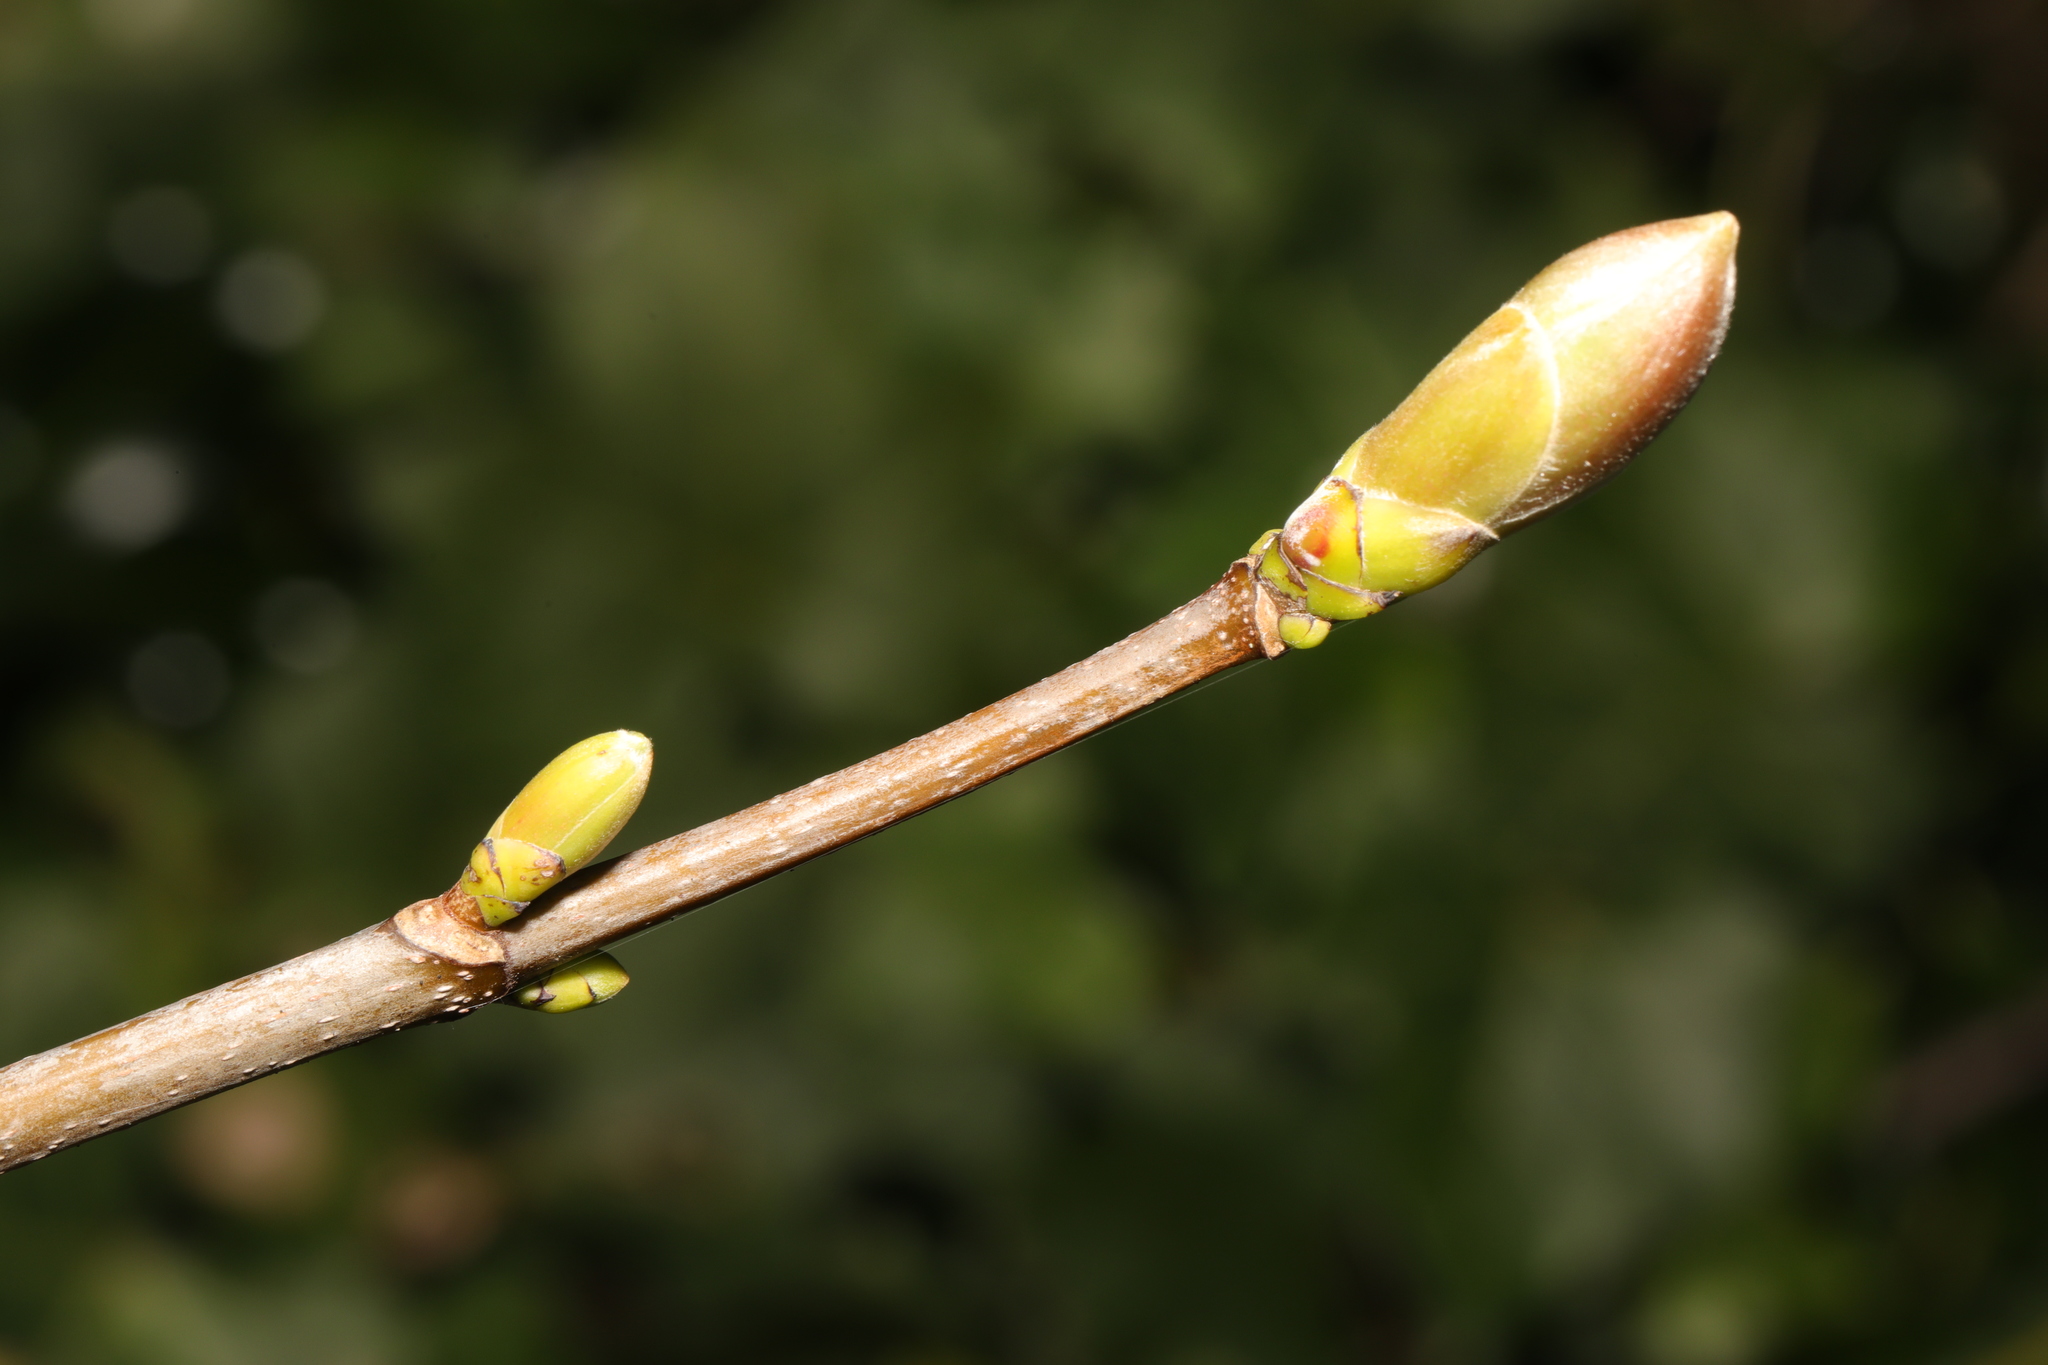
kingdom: Plantae
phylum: Tracheophyta
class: Magnoliopsida
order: Sapindales
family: Sapindaceae
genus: Acer
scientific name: Acer pseudoplatanus
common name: Sycamore
